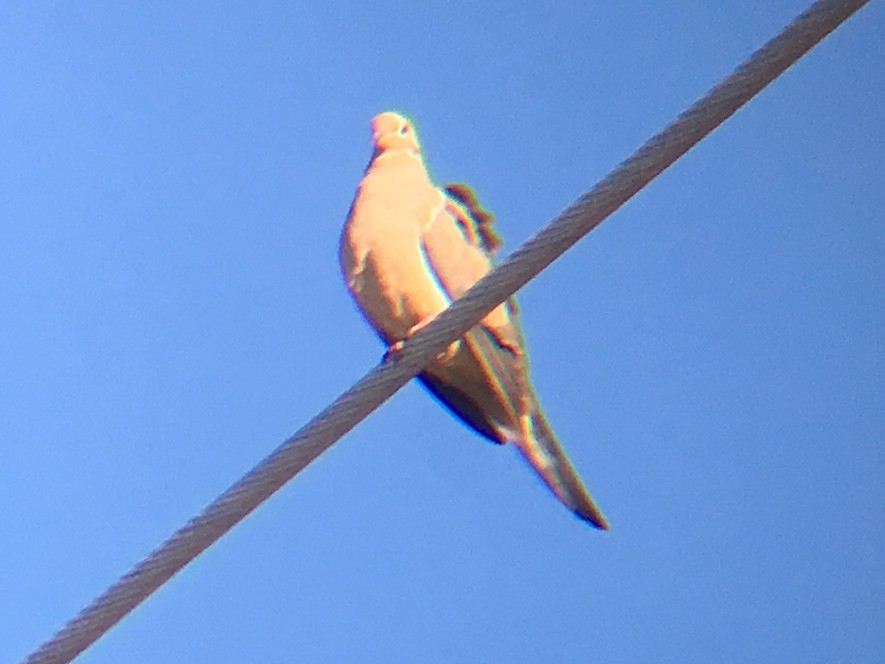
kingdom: Animalia
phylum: Chordata
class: Aves
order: Columbiformes
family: Columbidae
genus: Zenaida
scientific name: Zenaida macroura
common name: Mourning dove
